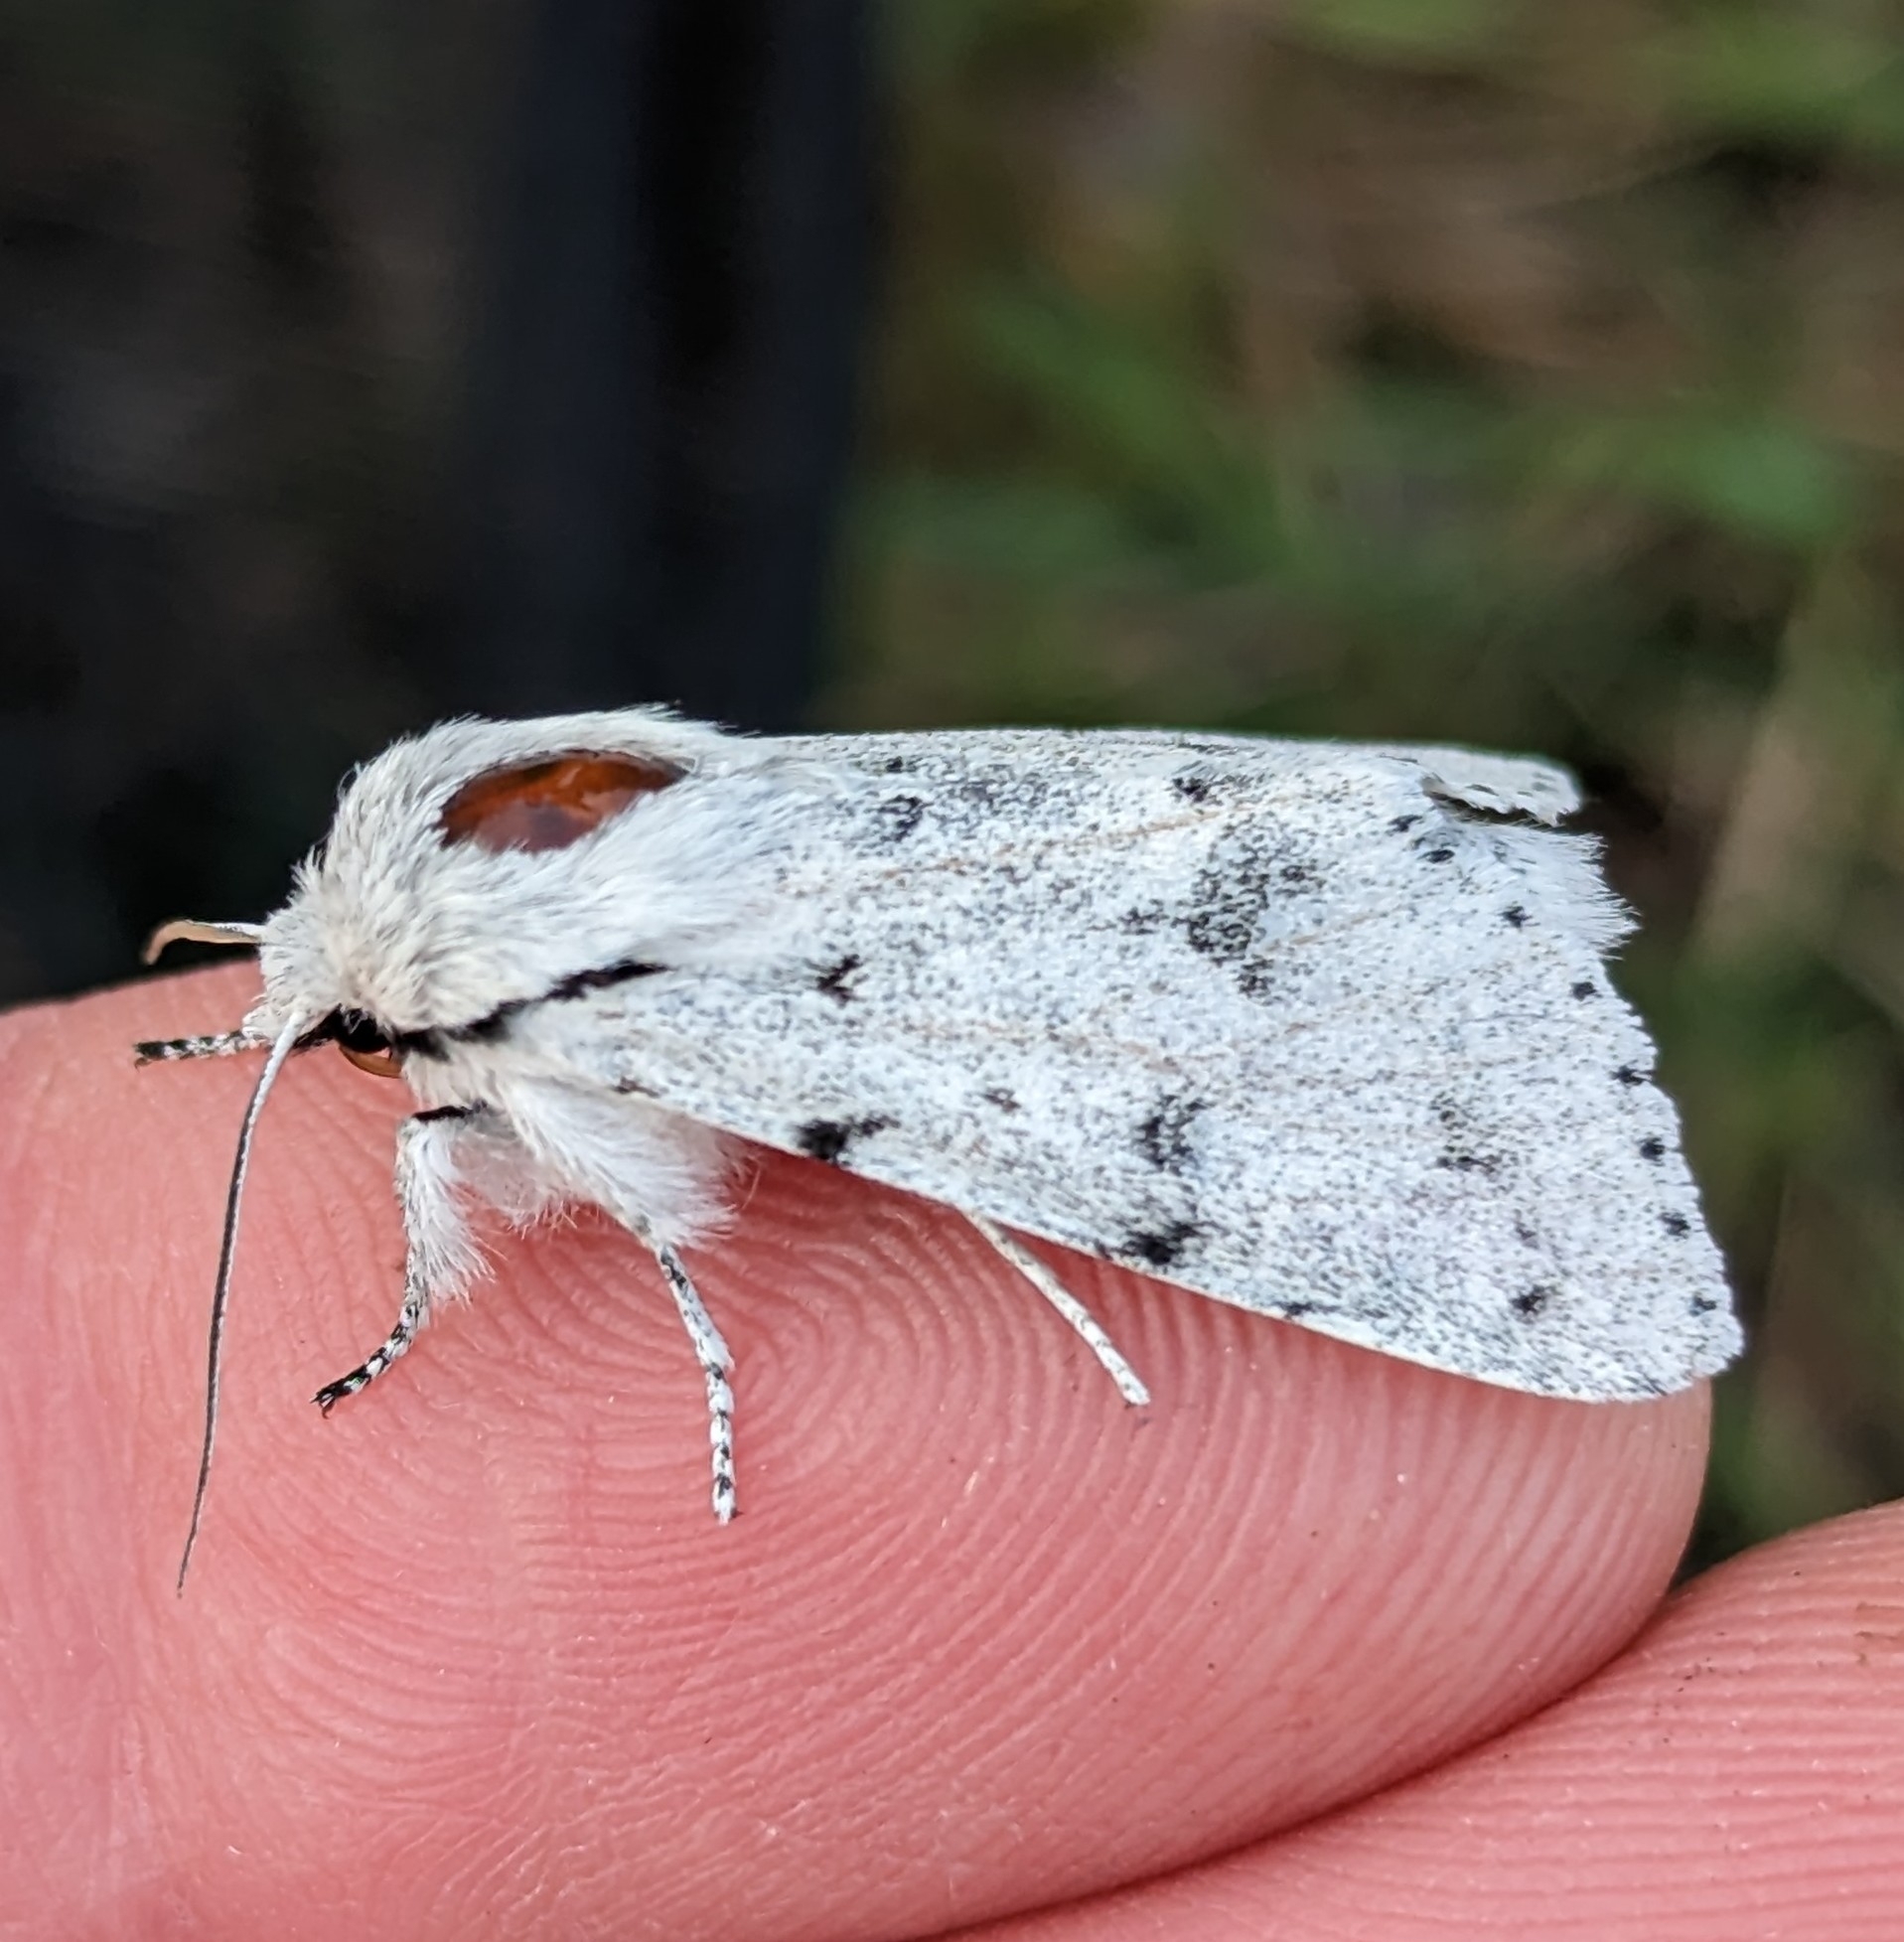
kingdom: Animalia
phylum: Arthropoda
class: Insecta
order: Lepidoptera
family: Noctuidae
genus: Acronicta
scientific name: Acronicta vulpina
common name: Miller dagger
